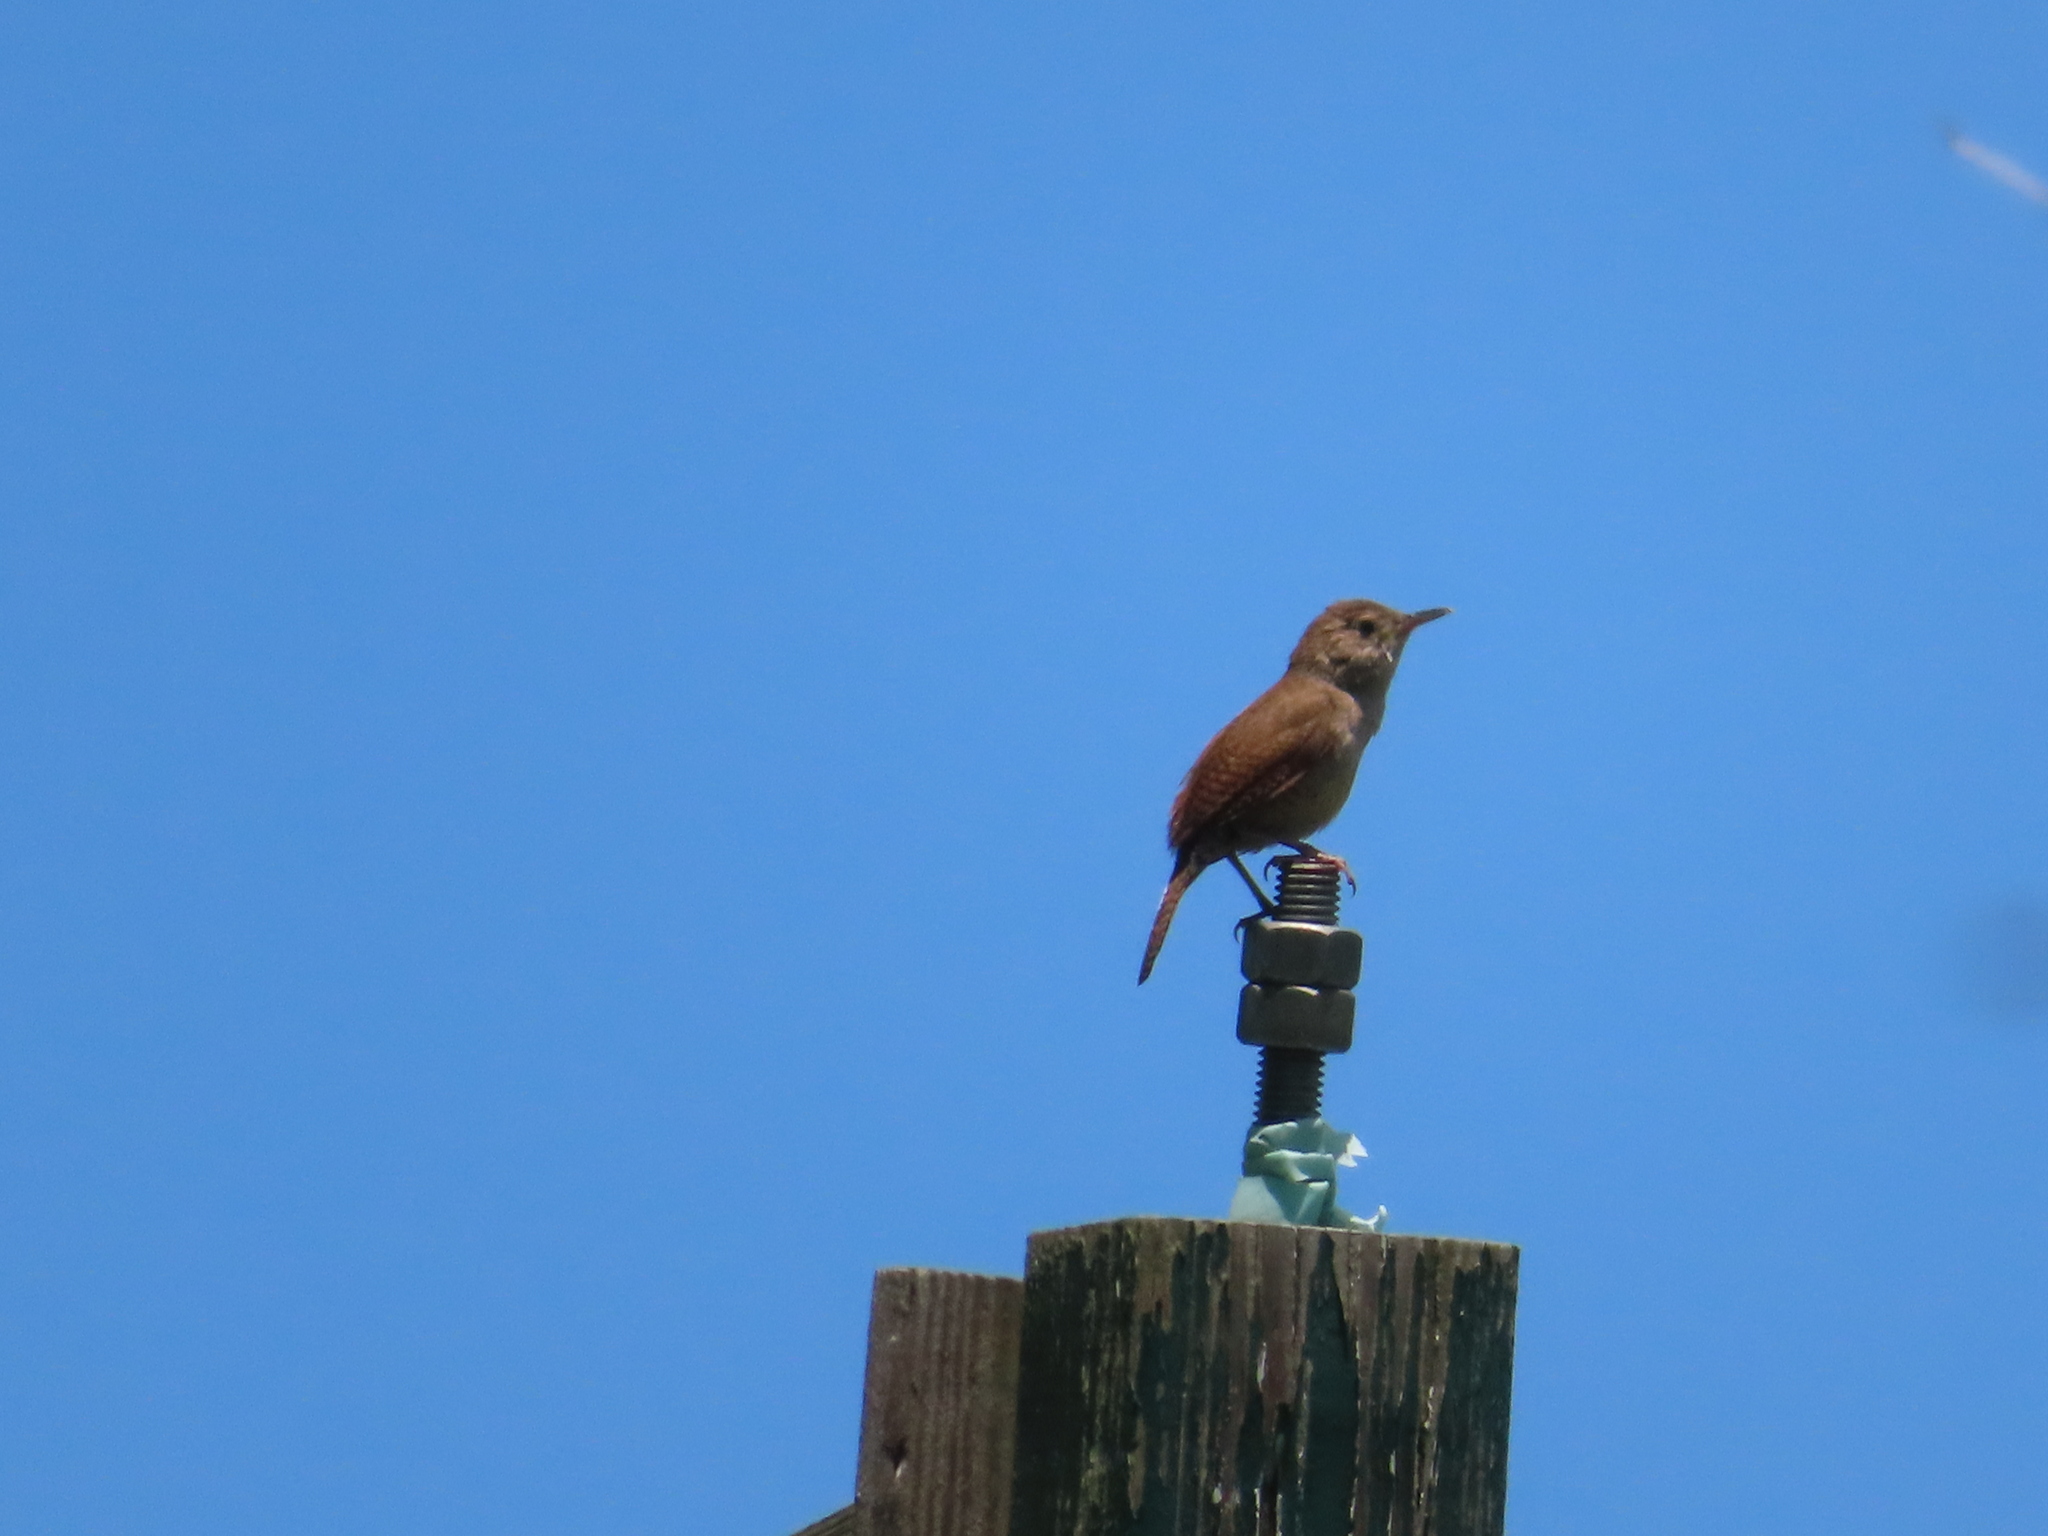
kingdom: Animalia
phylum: Chordata
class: Aves
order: Passeriformes
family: Troglodytidae
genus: Troglodytes
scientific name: Troglodytes aedon
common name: House wren
